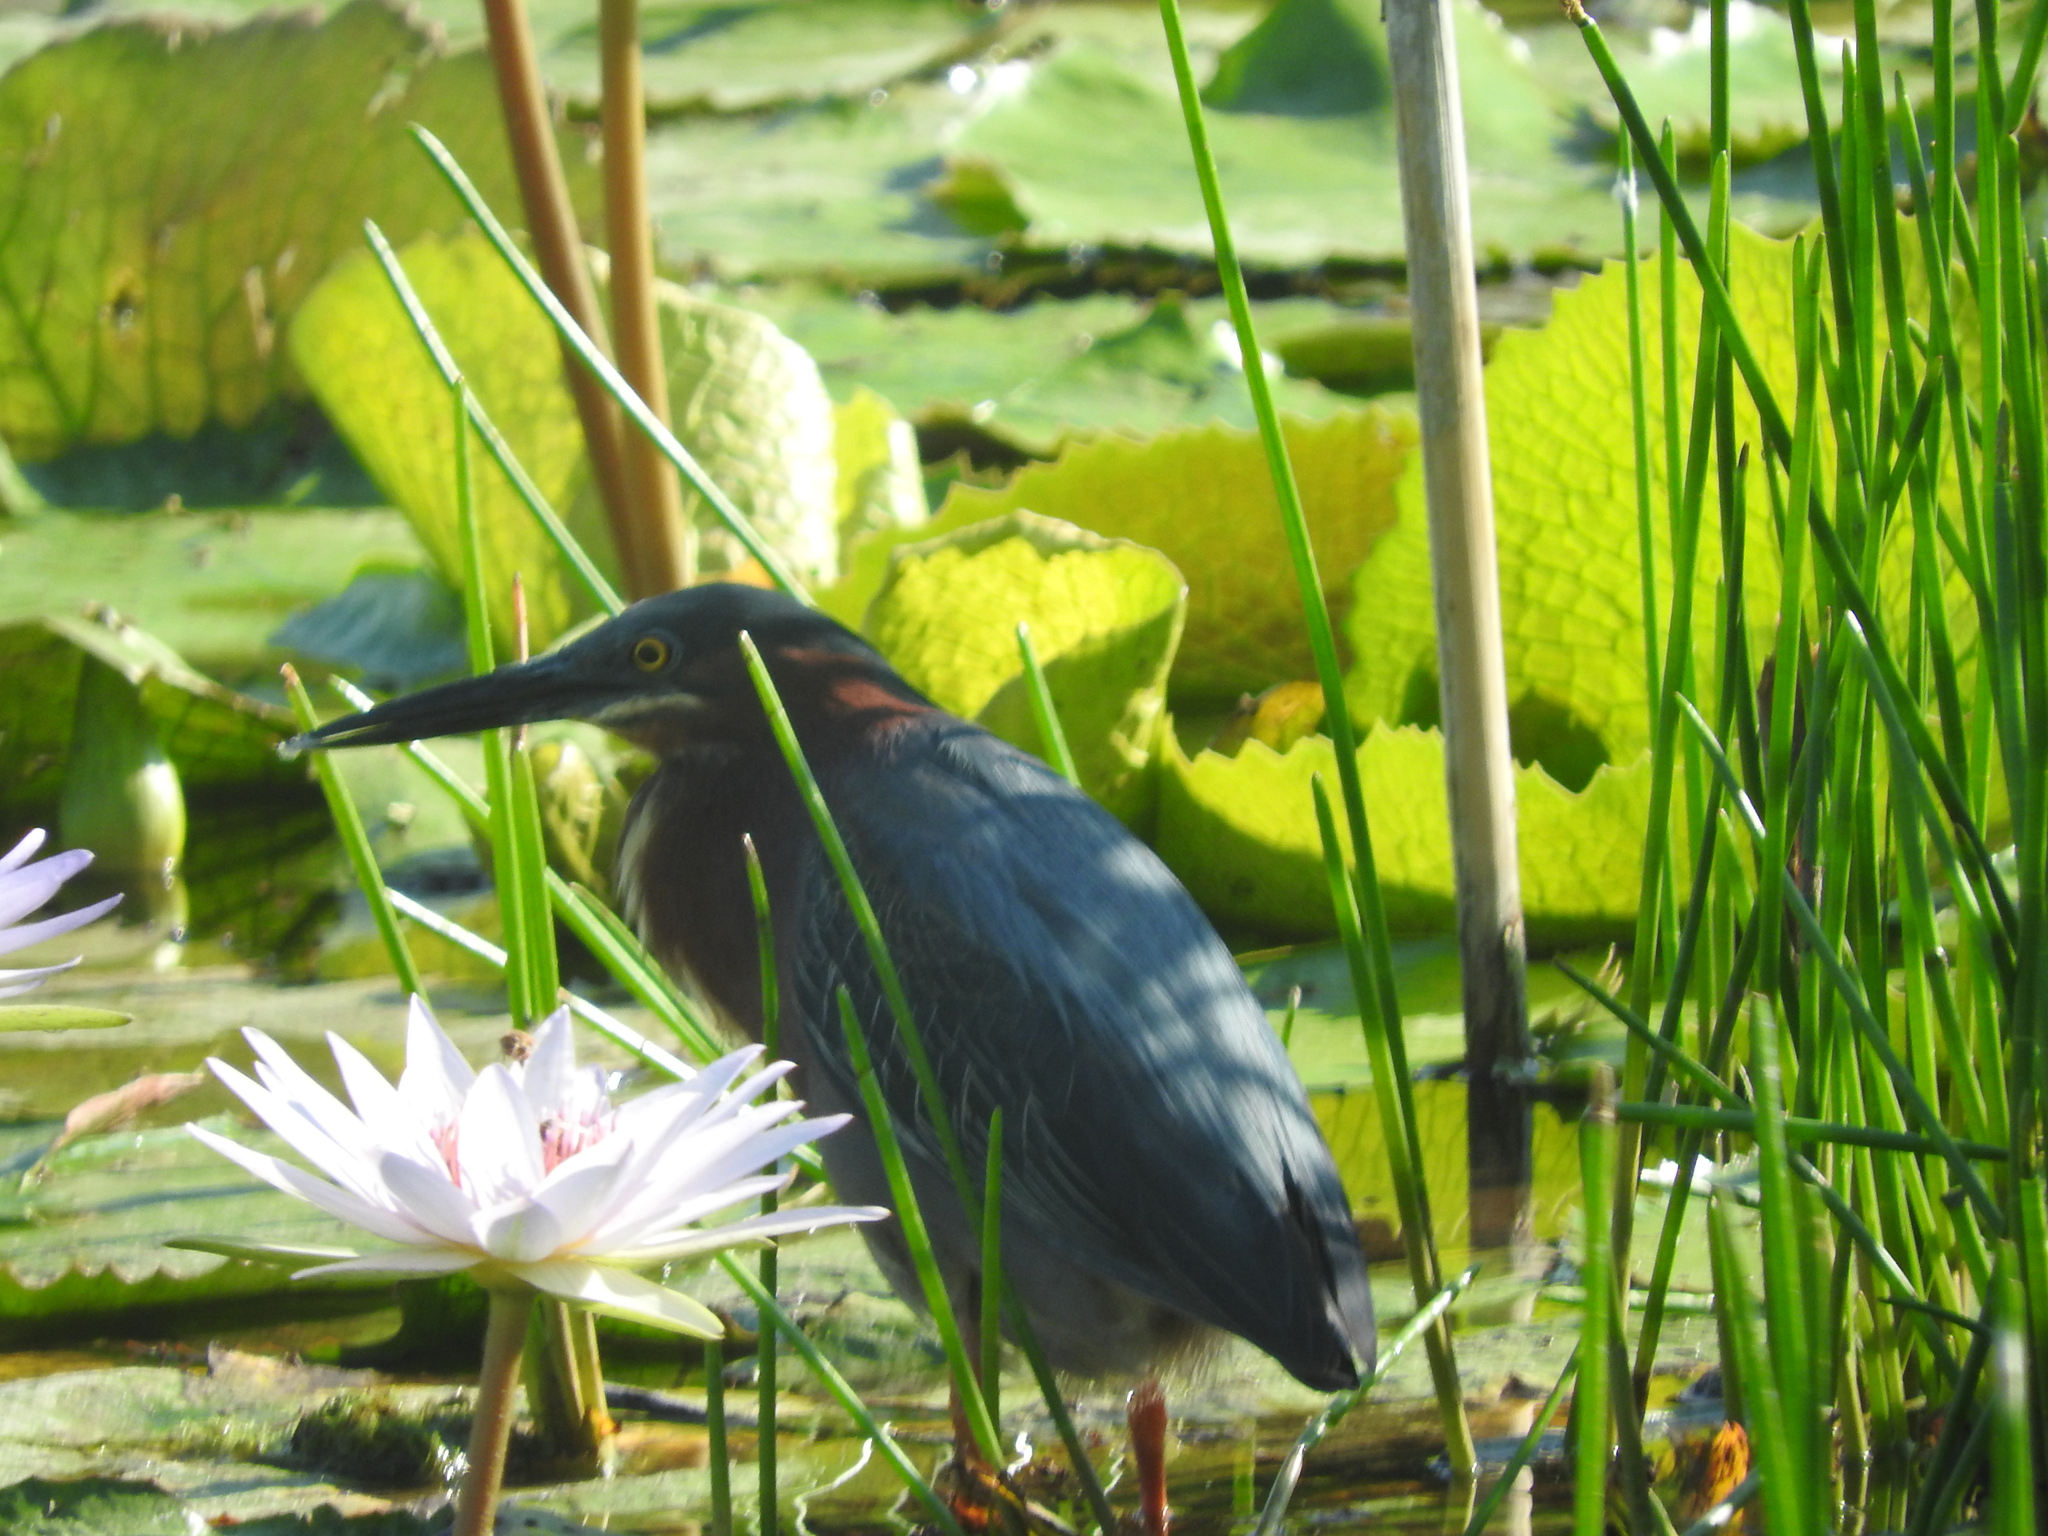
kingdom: Animalia
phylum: Chordata
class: Aves
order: Pelecaniformes
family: Ardeidae
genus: Butorides
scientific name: Butorides virescens
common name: Green heron
